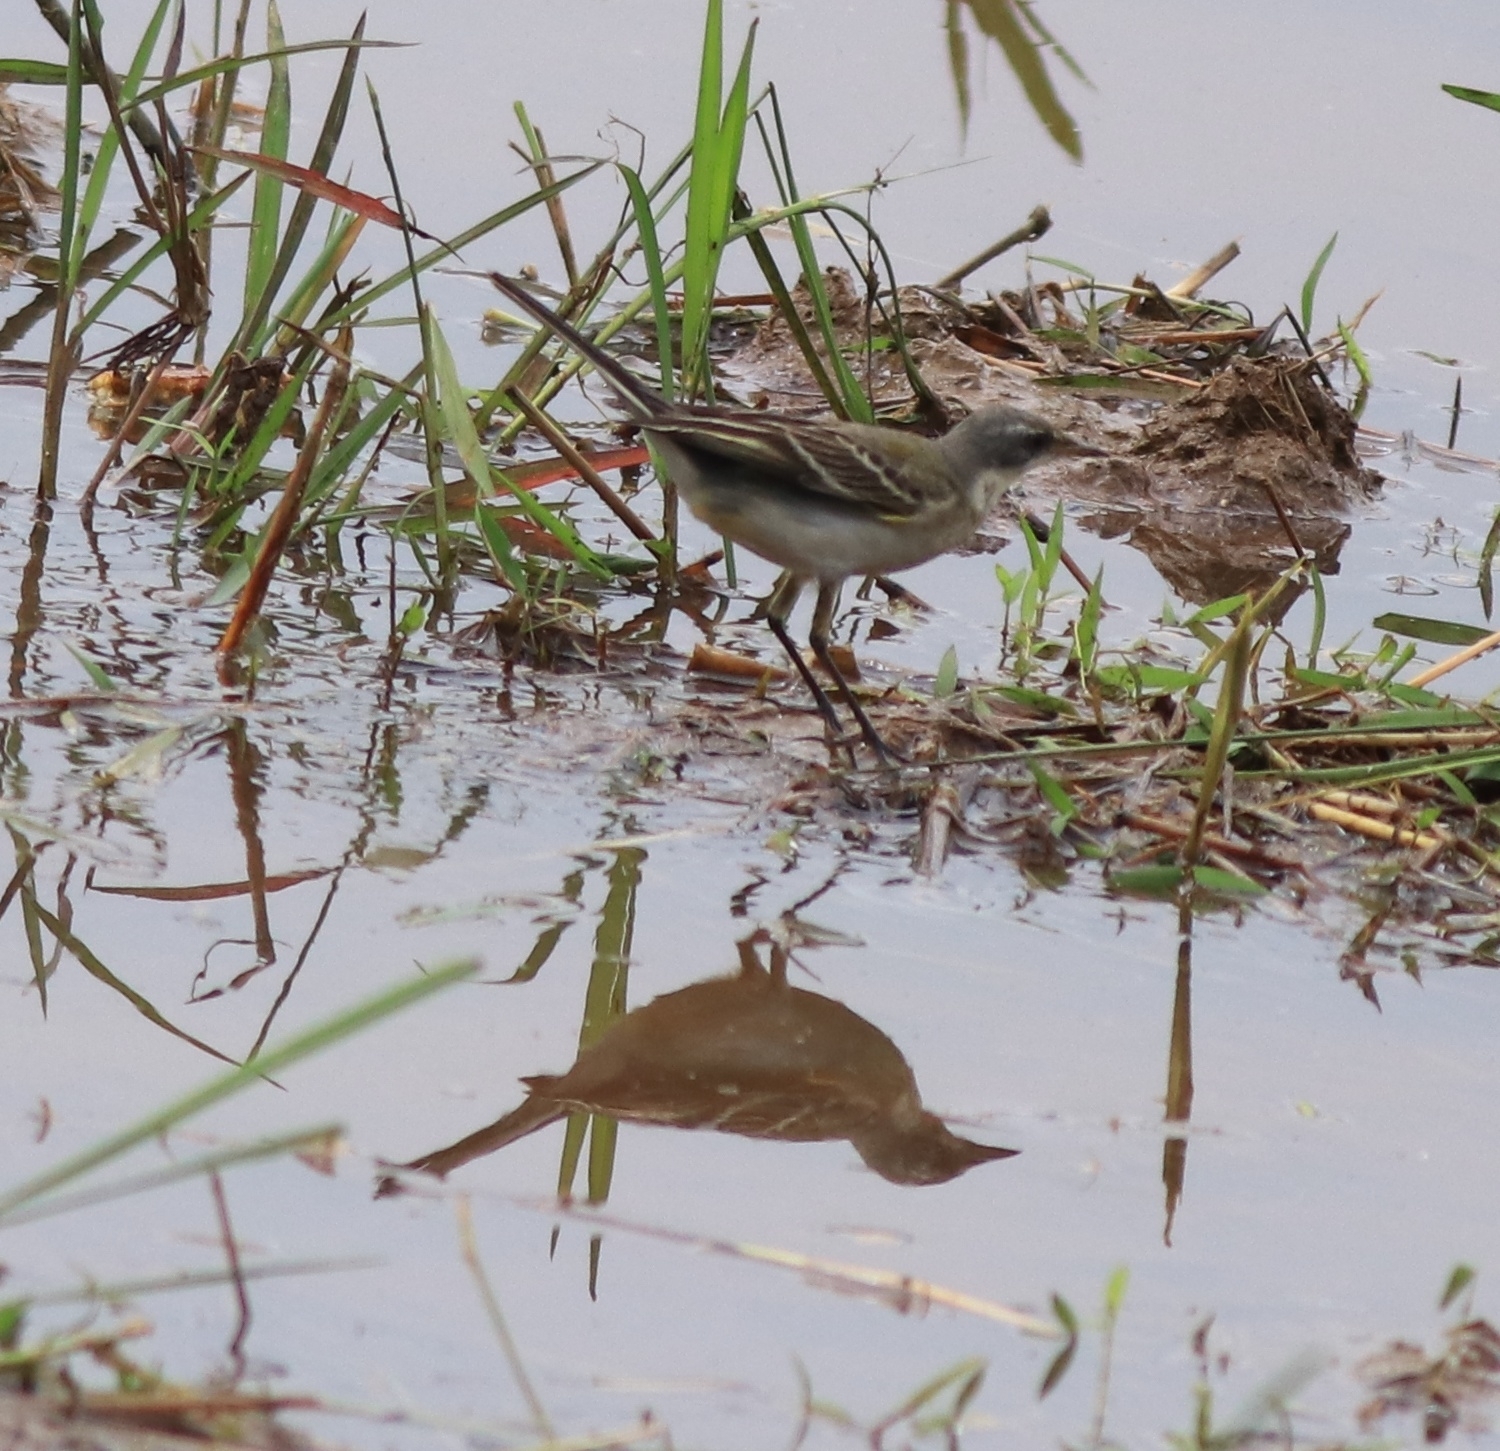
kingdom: Animalia
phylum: Chordata
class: Aves
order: Passeriformes
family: Motacillidae
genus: Motacilla
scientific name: Motacilla flava
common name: Western yellow wagtail
